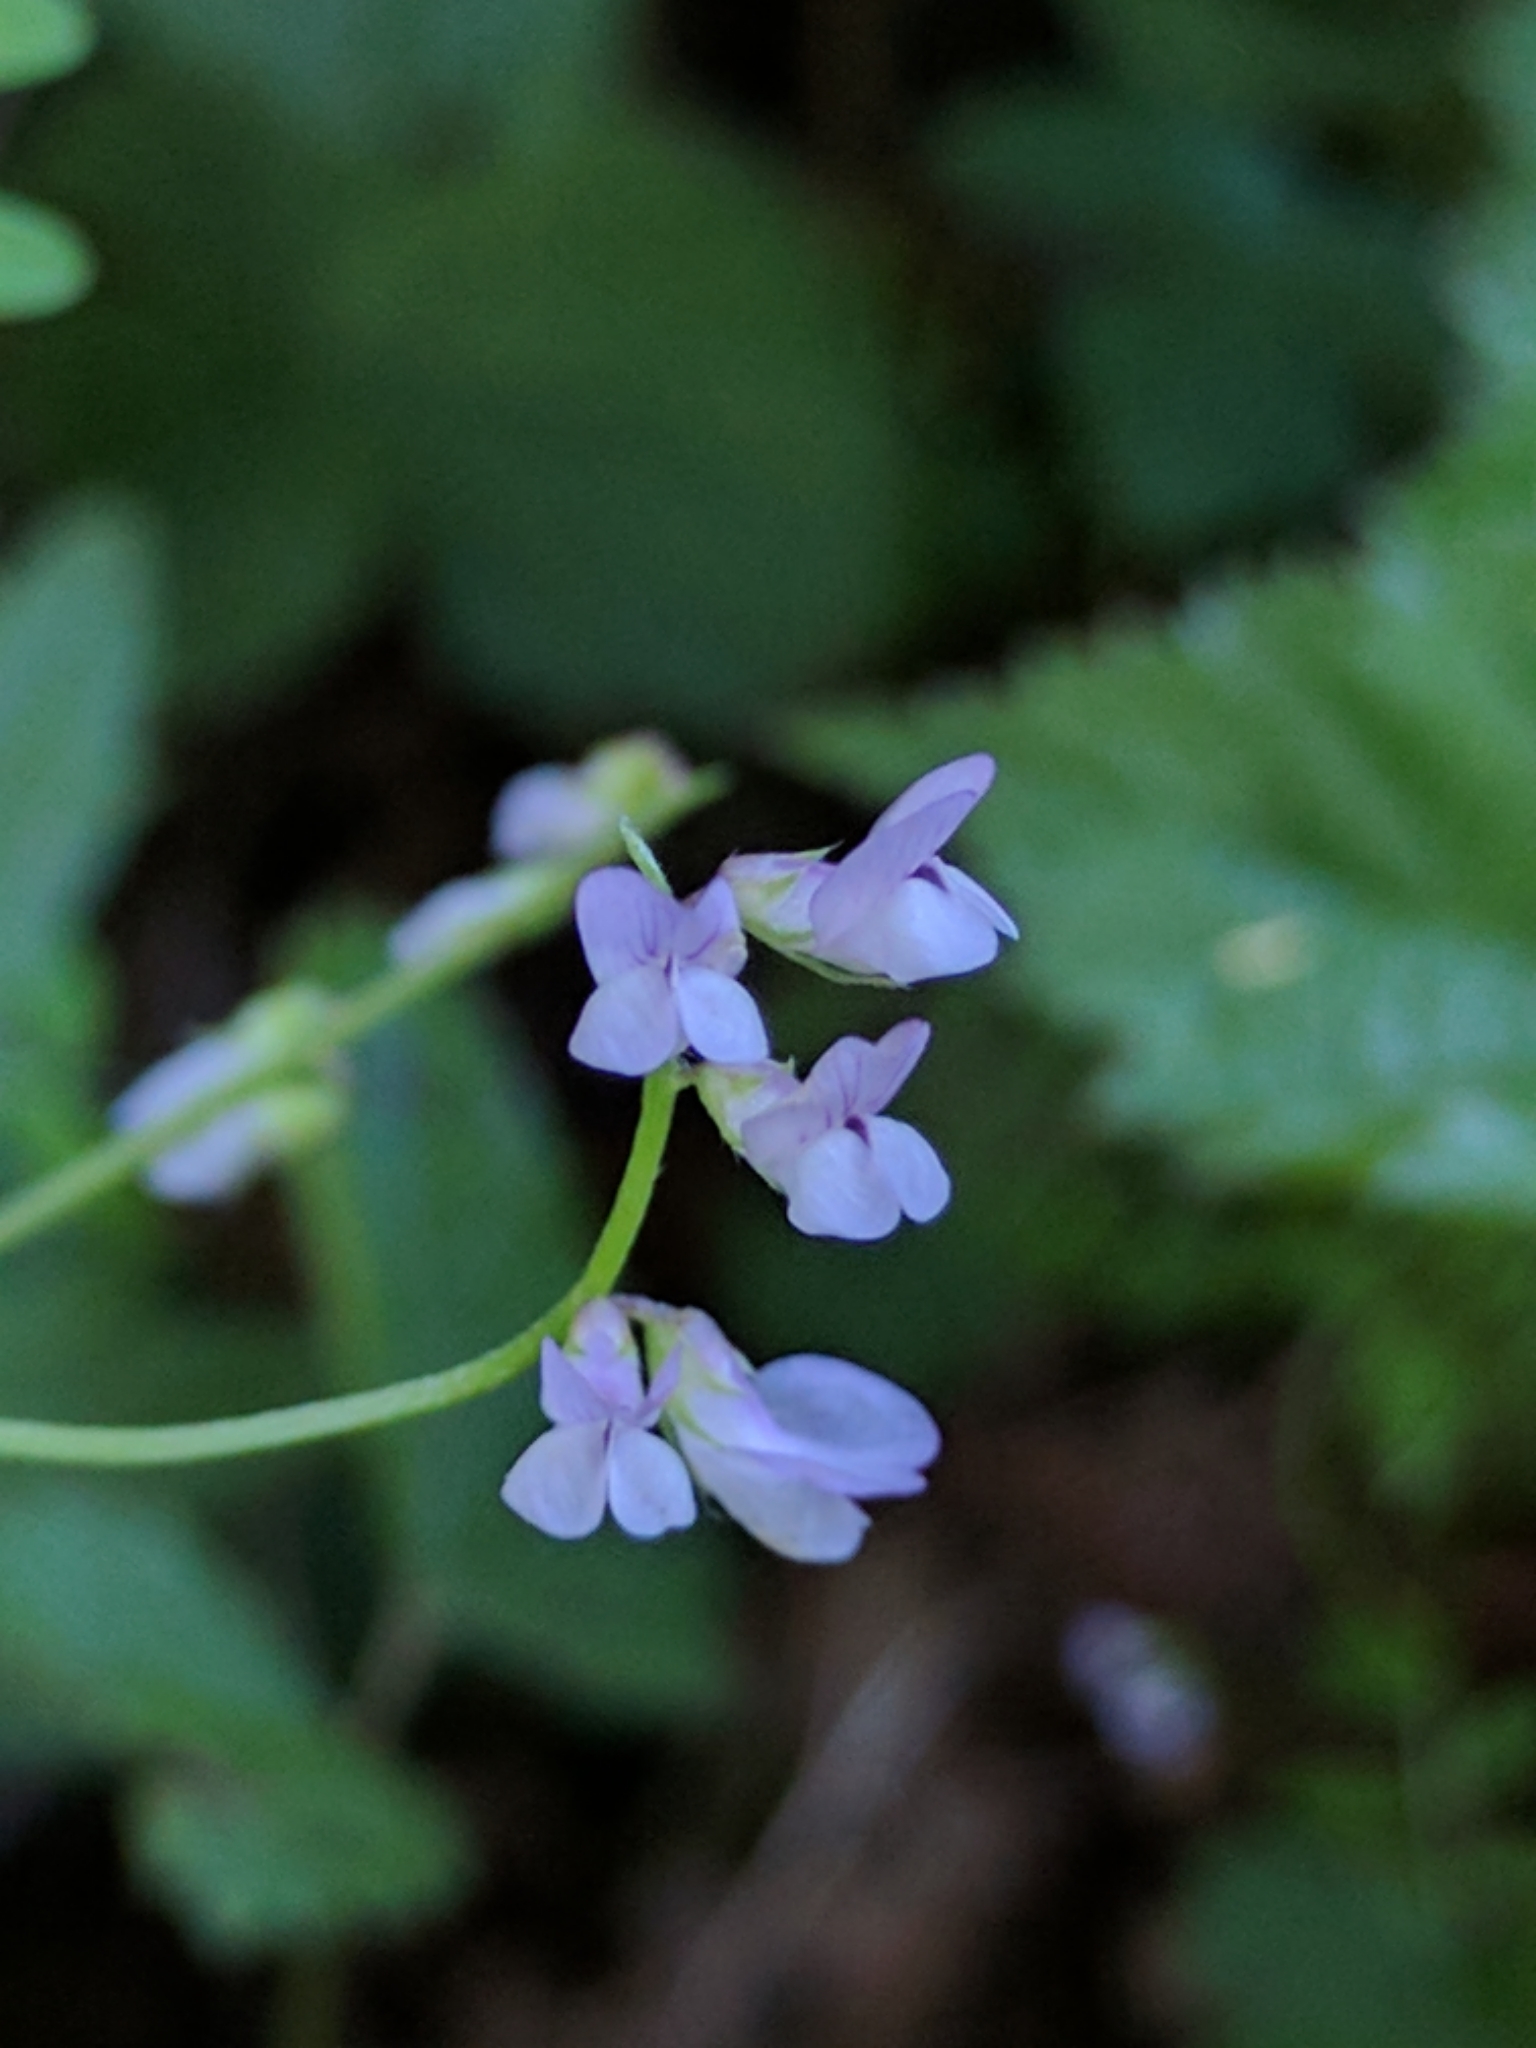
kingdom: Plantae
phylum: Tracheophyta
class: Magnoliopsida
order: Fabales
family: Fabaceae
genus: Vicia
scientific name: Vicia disperma
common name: European vetch
